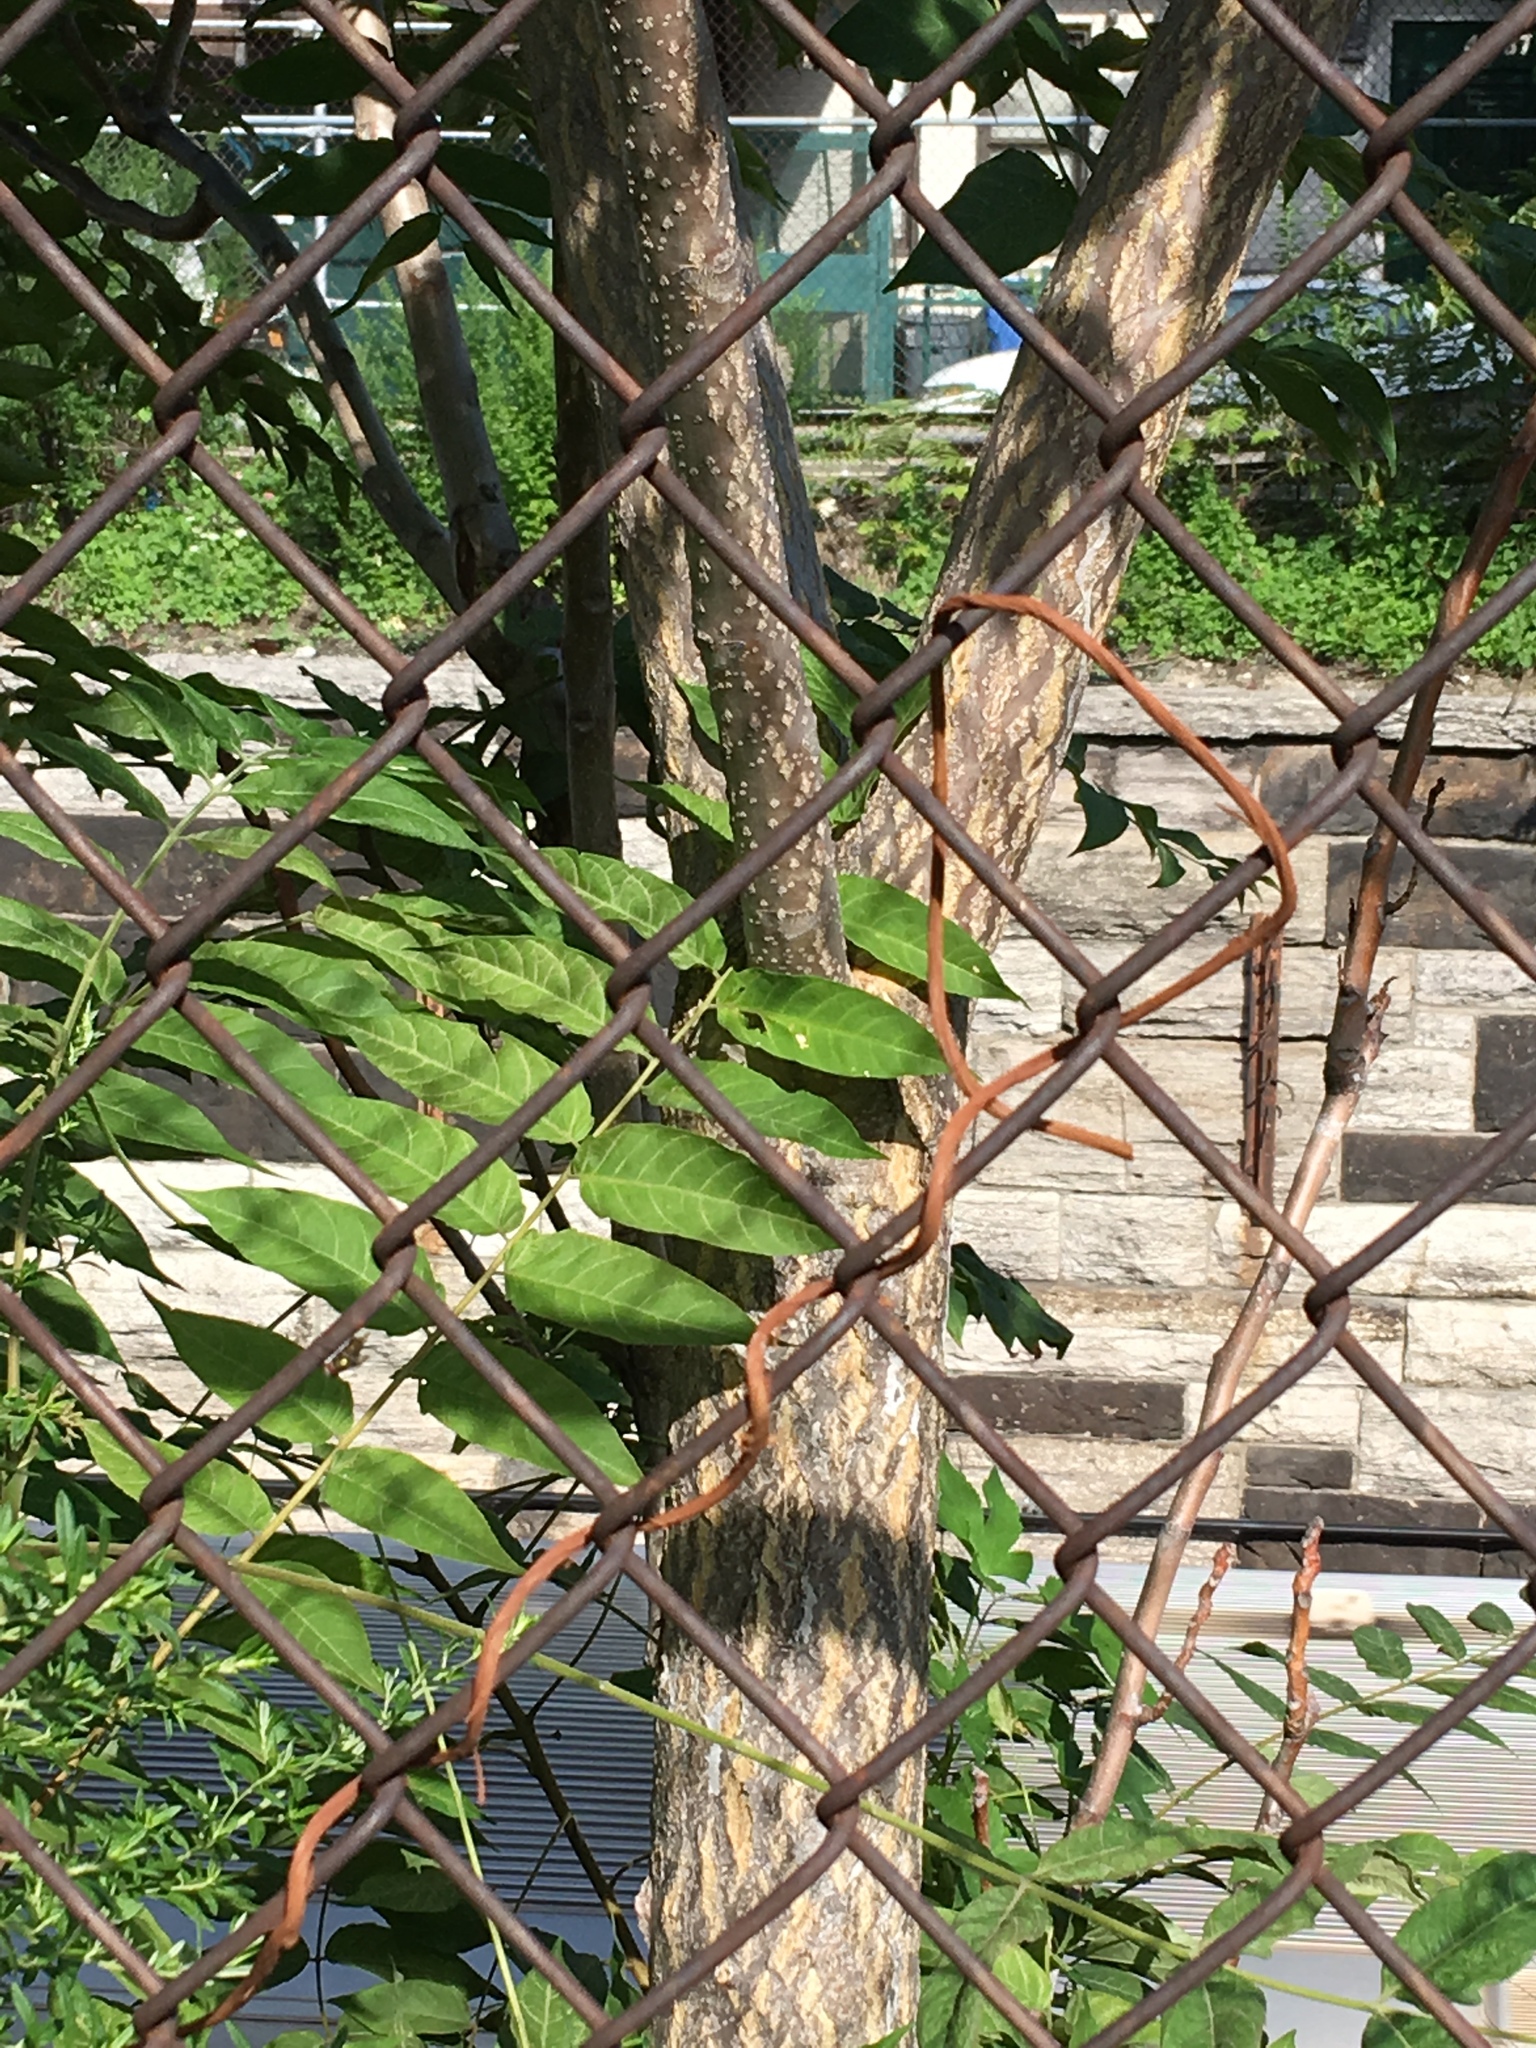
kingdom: Plantae
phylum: Tracheophyta
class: Magnoliopsida
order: Sapindales
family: Simaroubaceae
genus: Ailanthus
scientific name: Ailanthus altissima
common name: Tree-of-heaven
